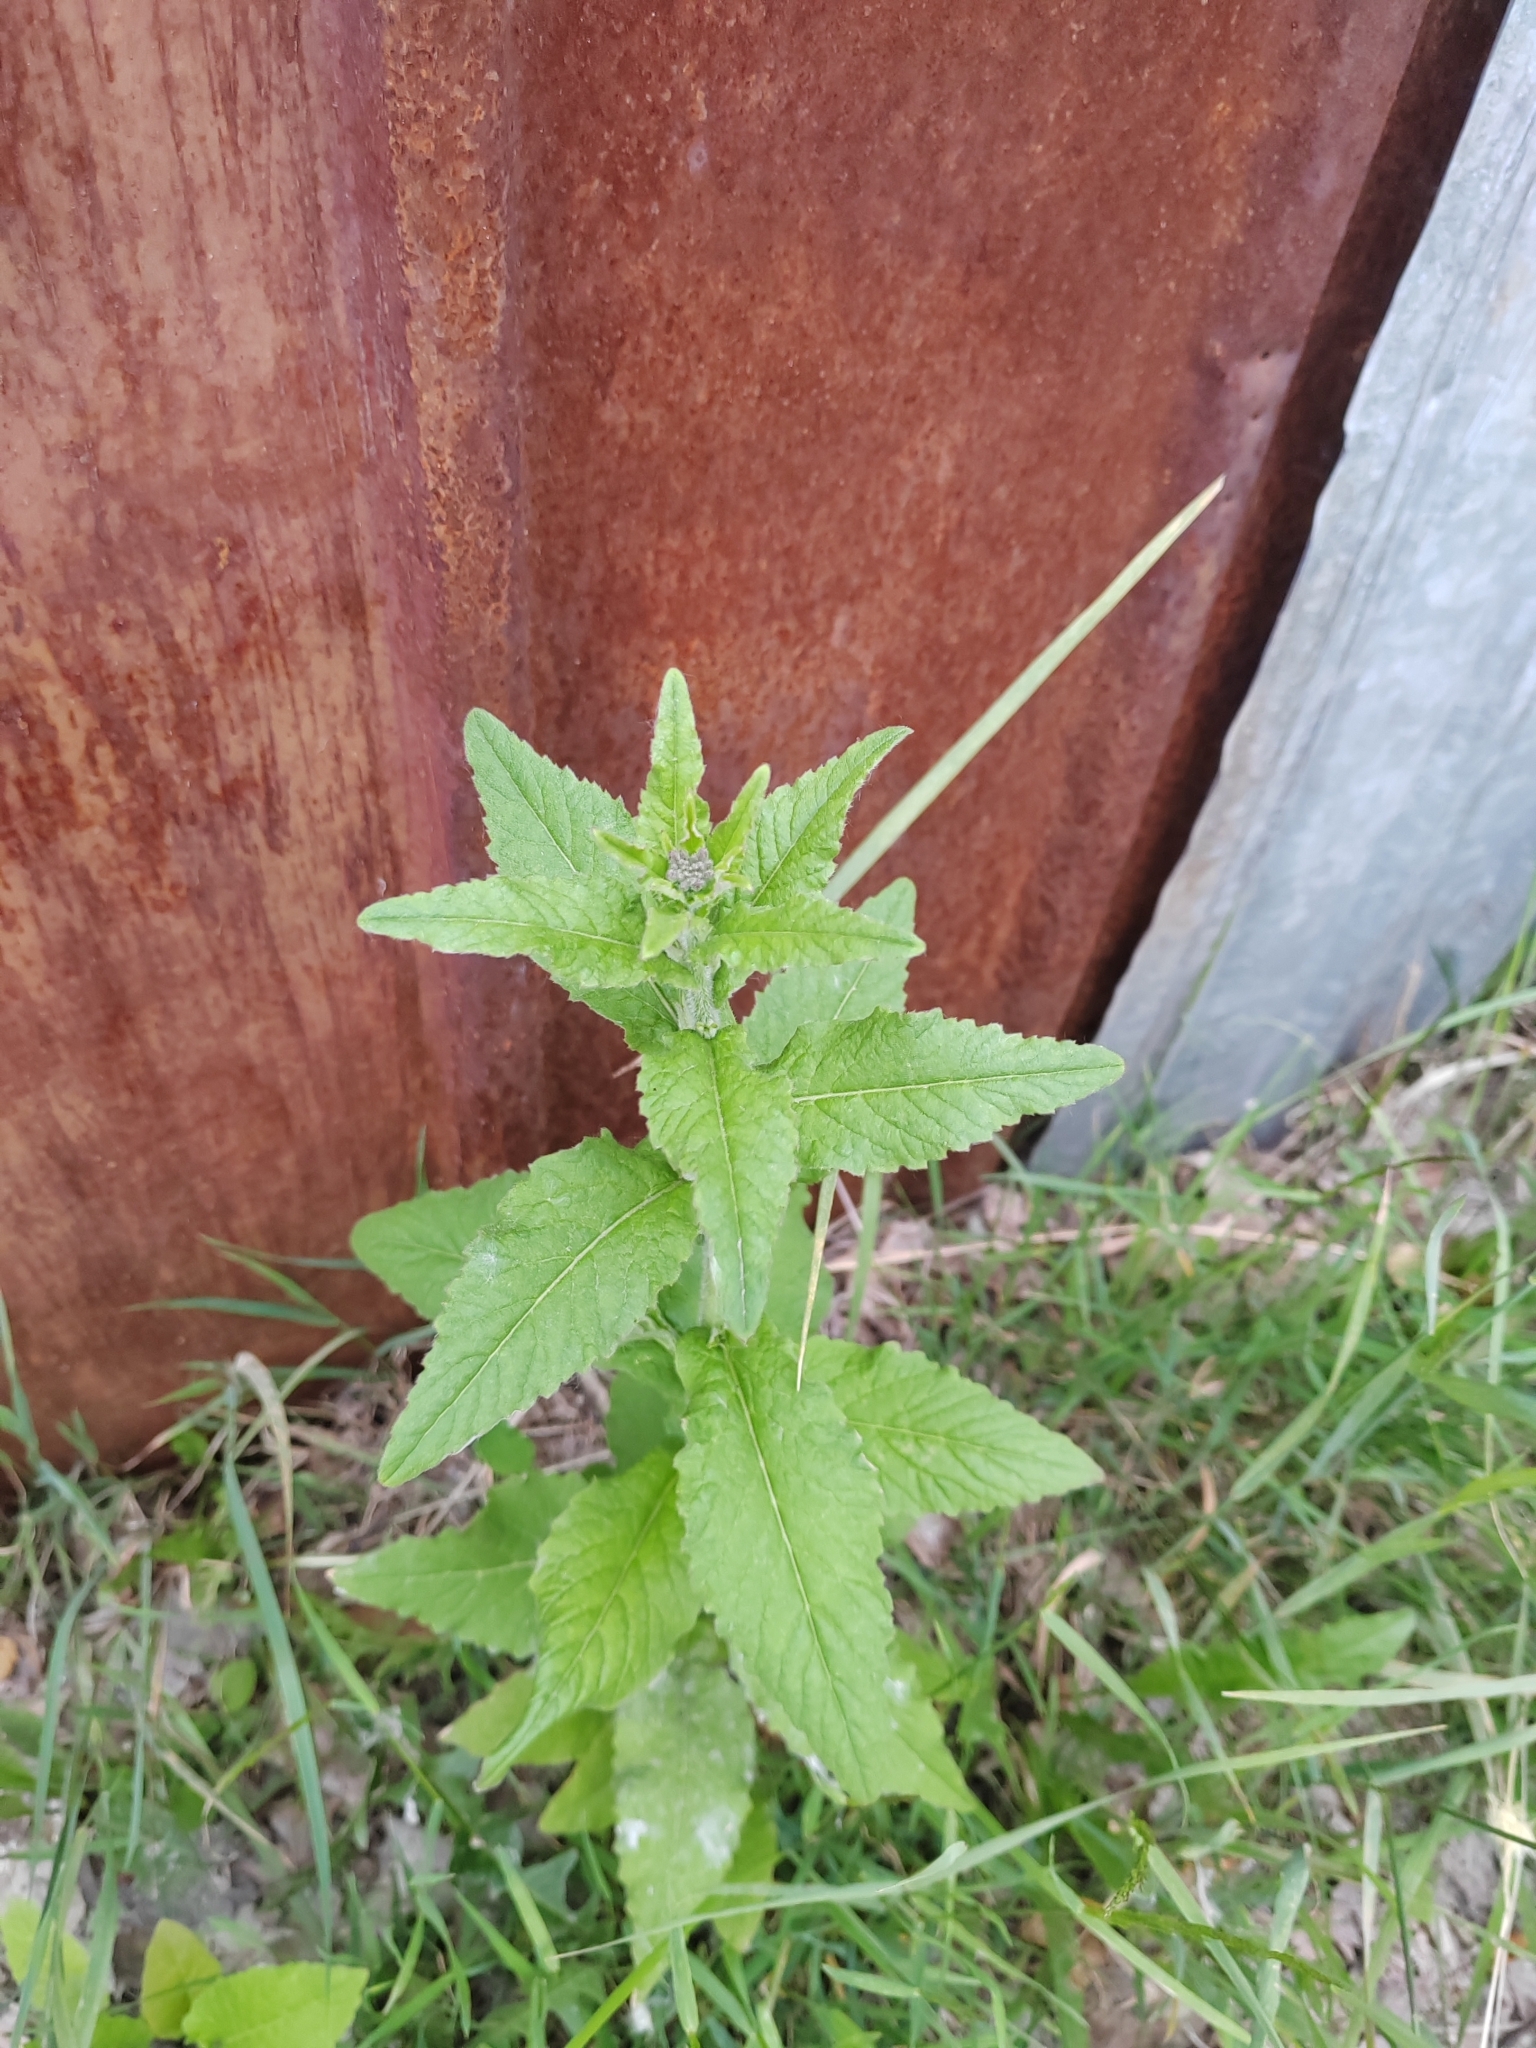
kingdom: Plantae
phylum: Tracheophyta
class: Magnoliopsida
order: Brassicales
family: Brassicaceae
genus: Catolobus
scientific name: Catolobus pendulus
